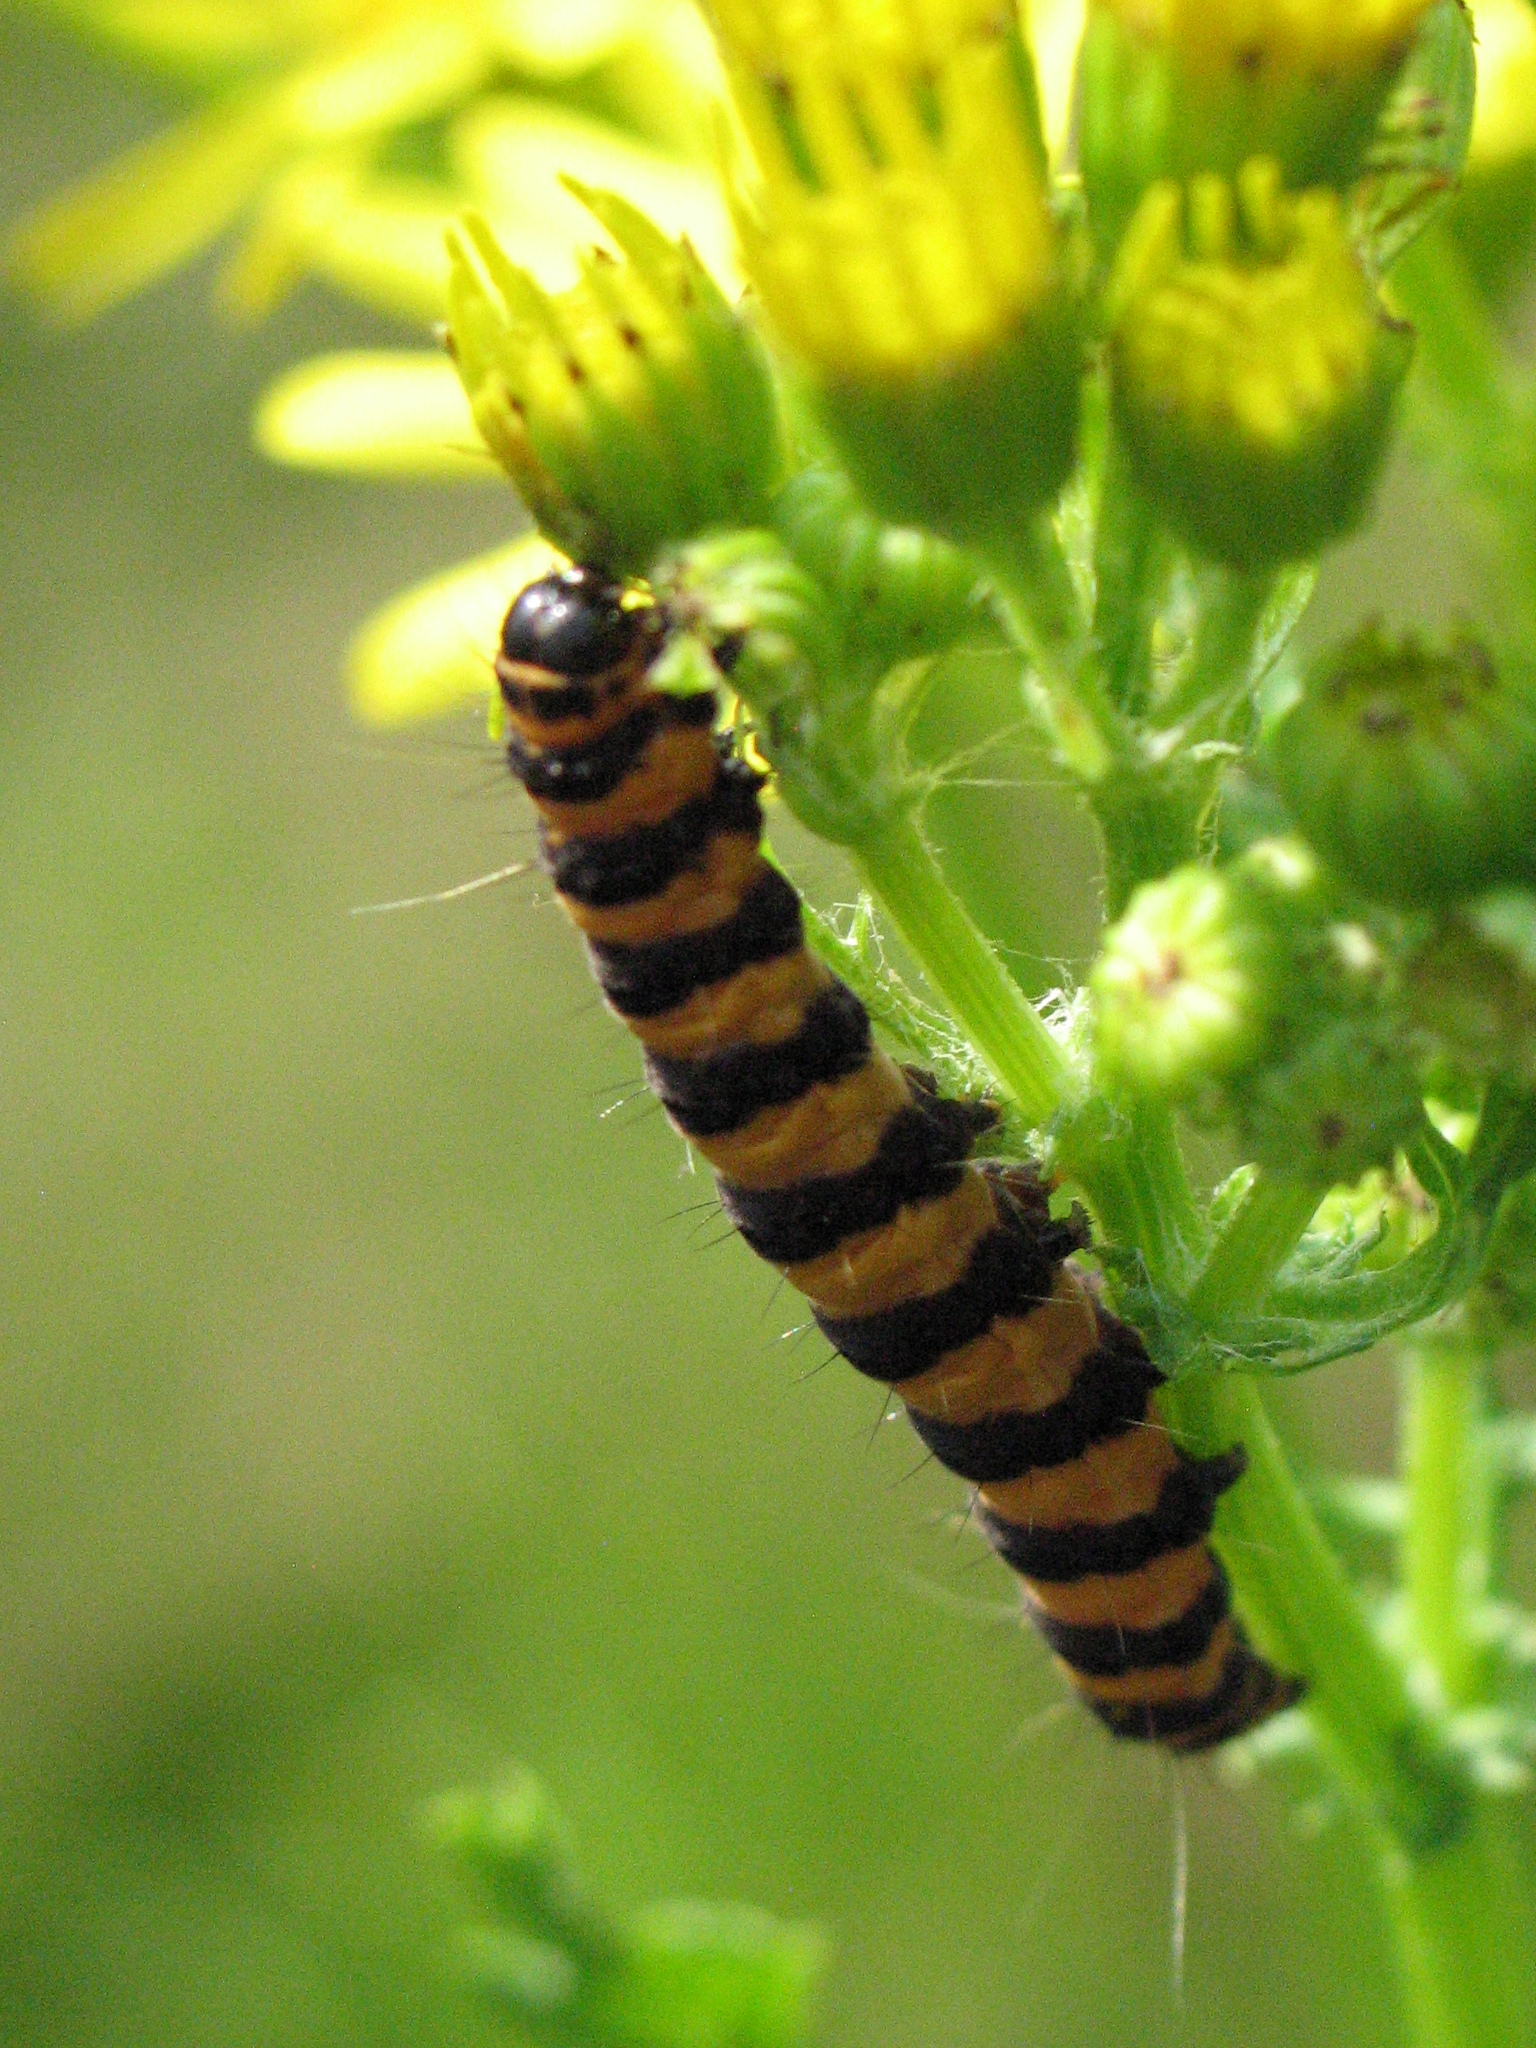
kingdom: Animalia
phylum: Arthropoda
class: Insecta
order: Lepidoptera
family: Erebidae
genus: Tyria
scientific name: Tyria jacobaeae
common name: Cinnabar
